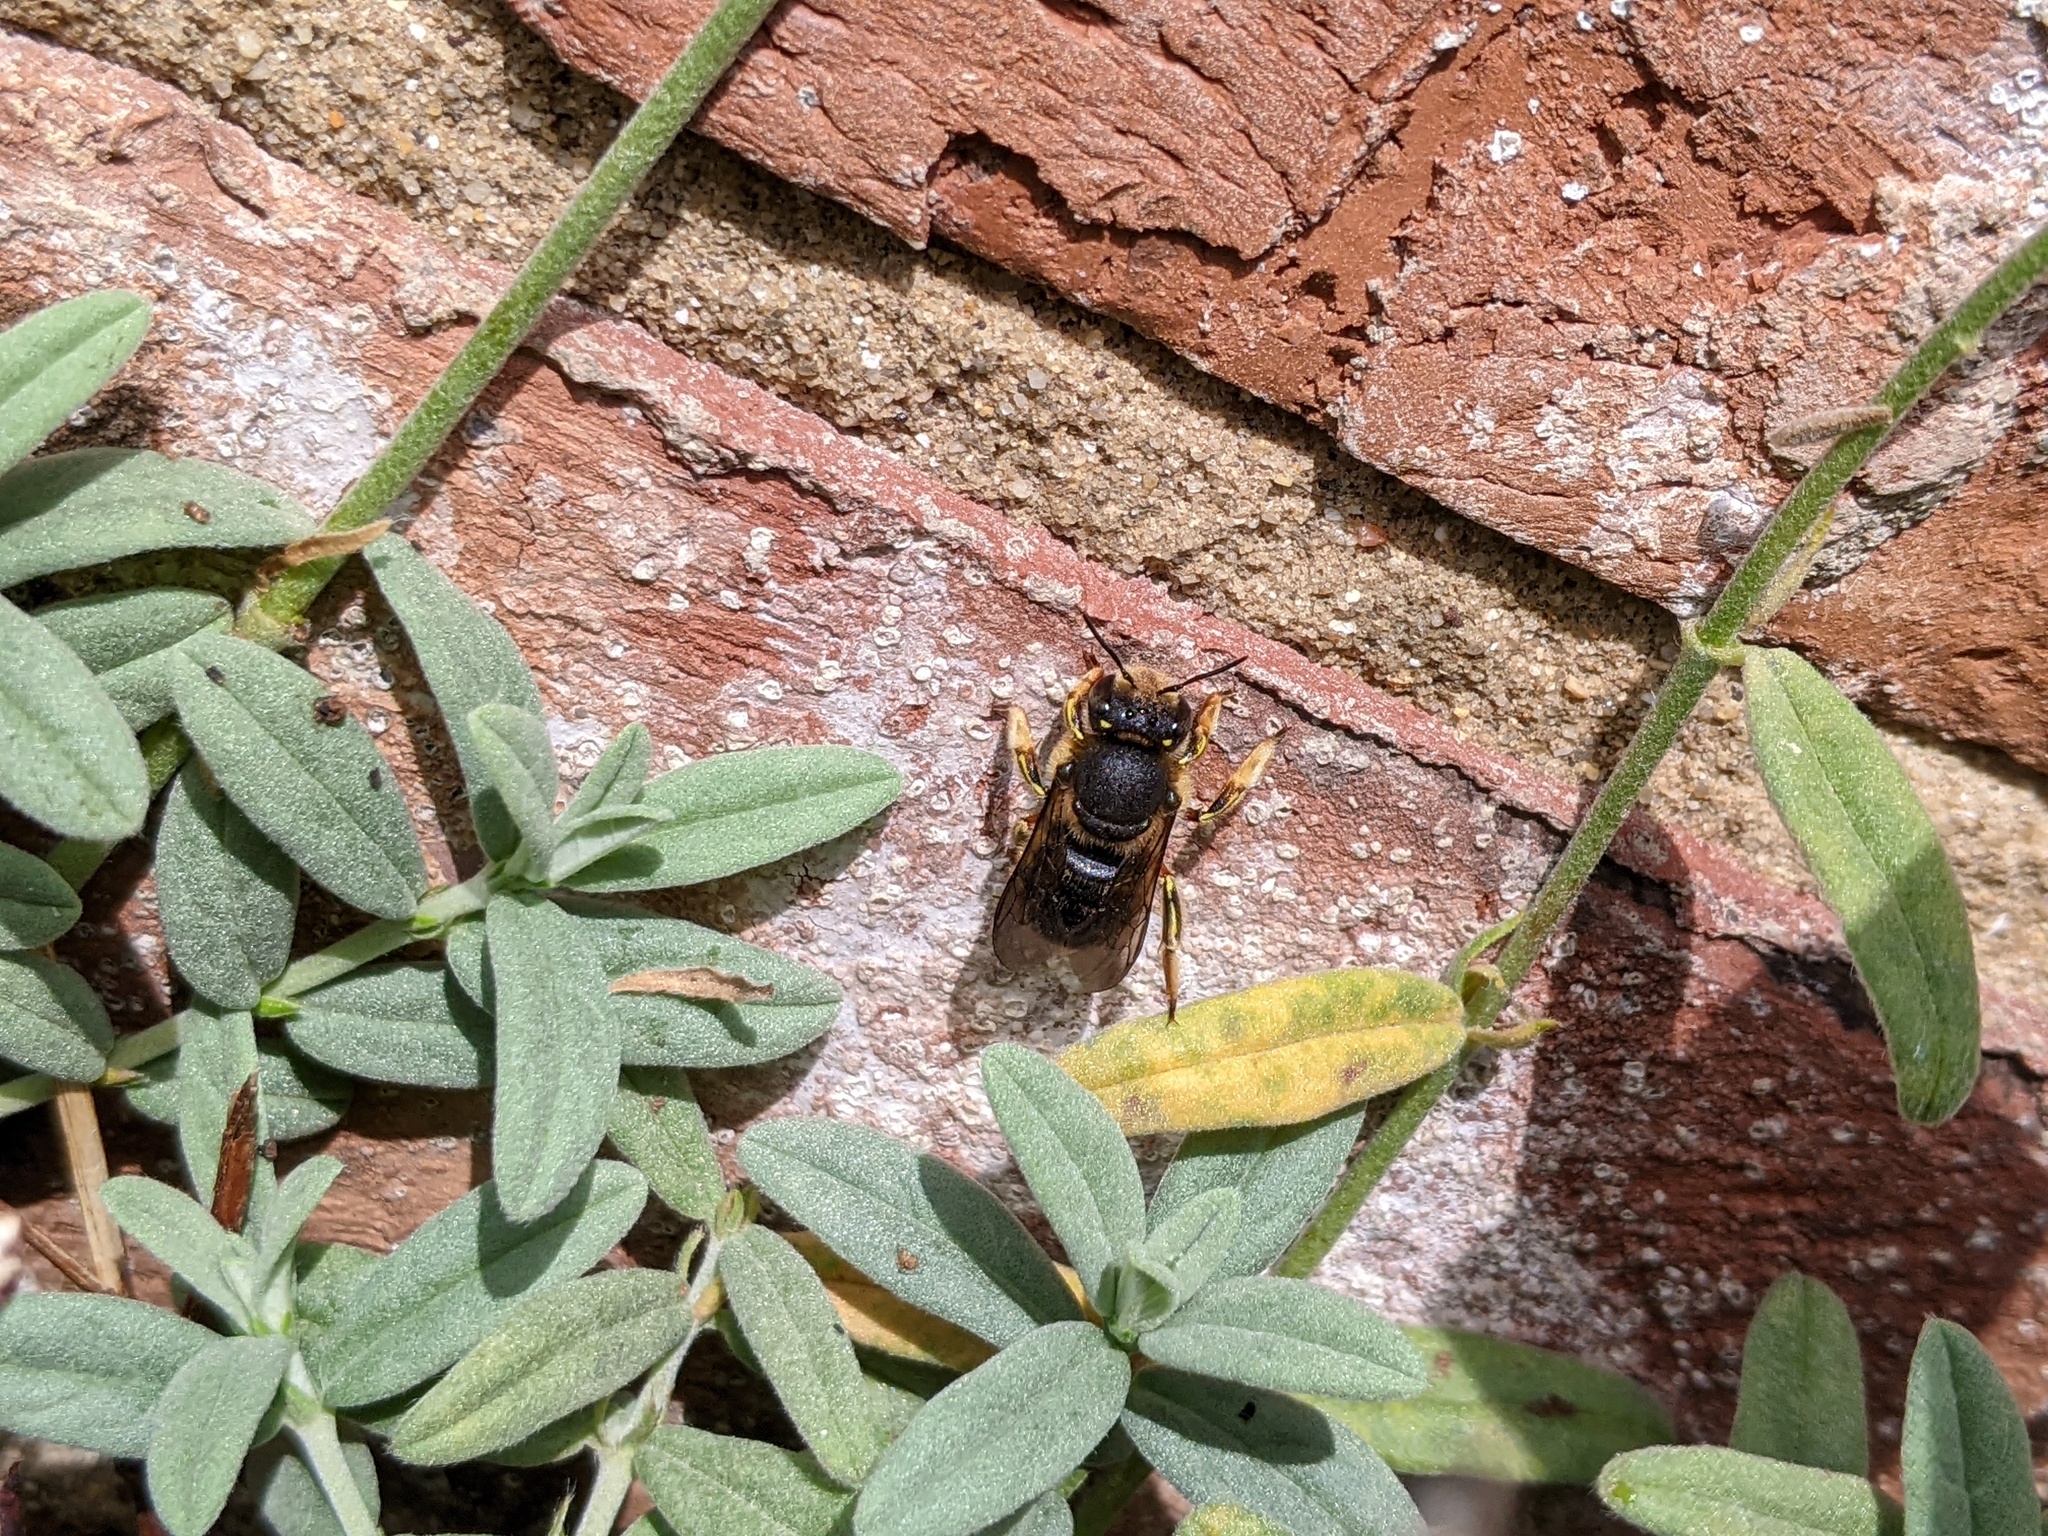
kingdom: Animalia
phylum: Arthropoda
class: Insecta
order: Hymenoptera
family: Megachilidae
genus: Anthidium
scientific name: Anthidium manicatum
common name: Wool carder bee
